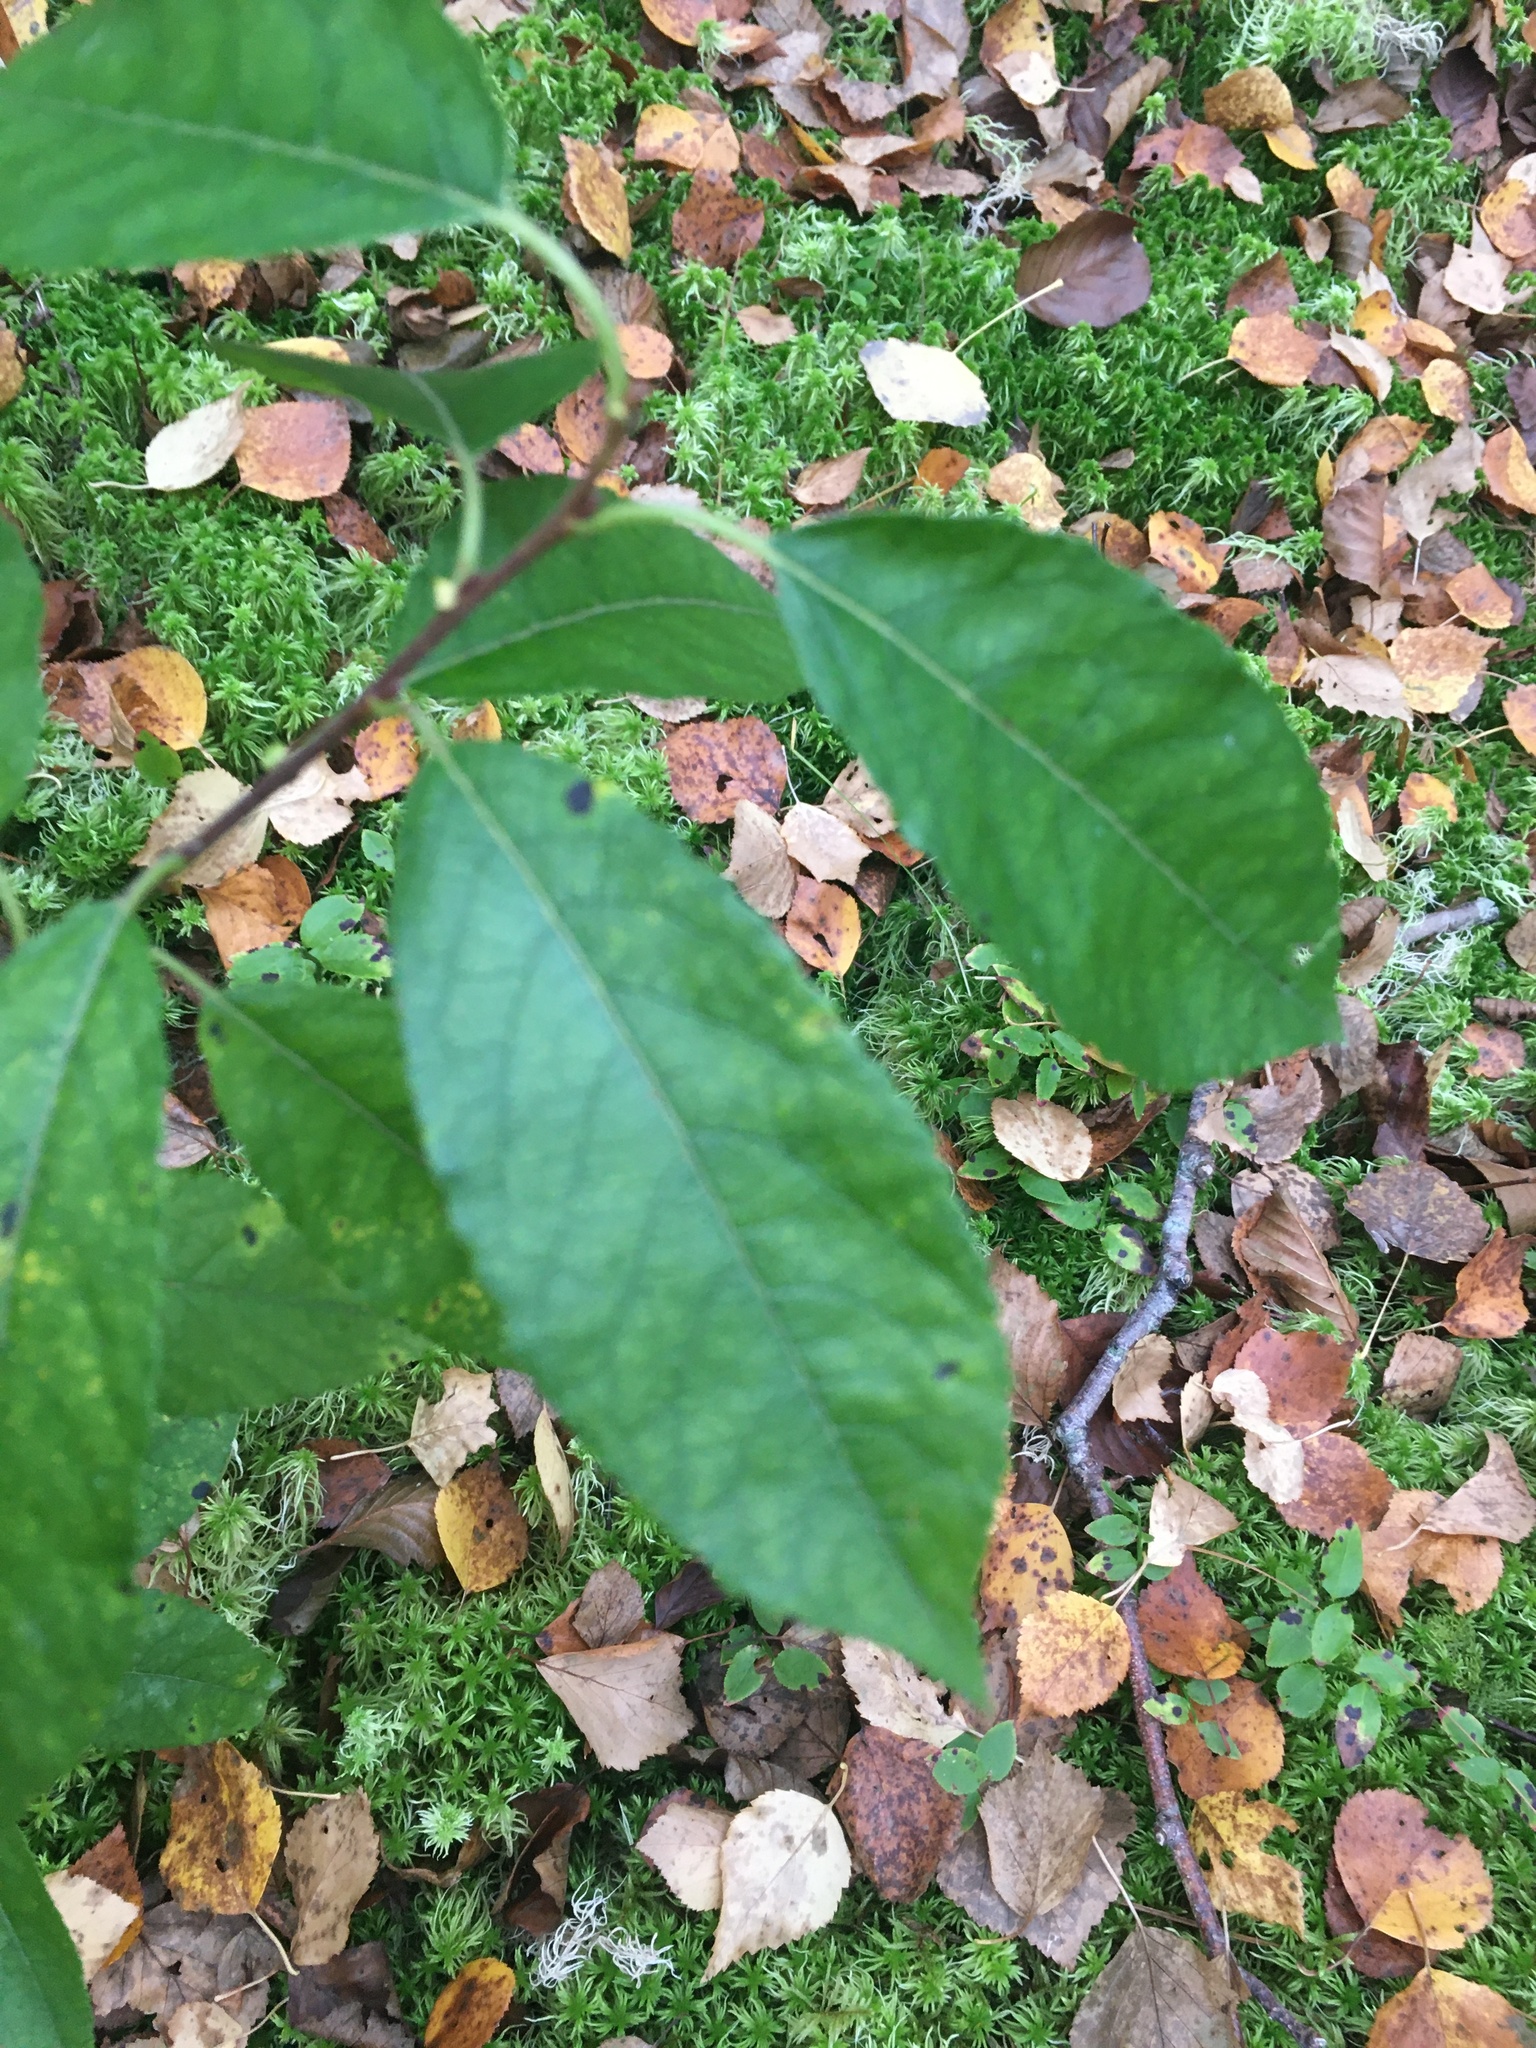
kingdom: Plantae
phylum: Tracheophyta
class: Magnoliopsida
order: Rosales
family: Rosaceae
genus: Prunus
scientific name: Prunus padus
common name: Bird cherry
